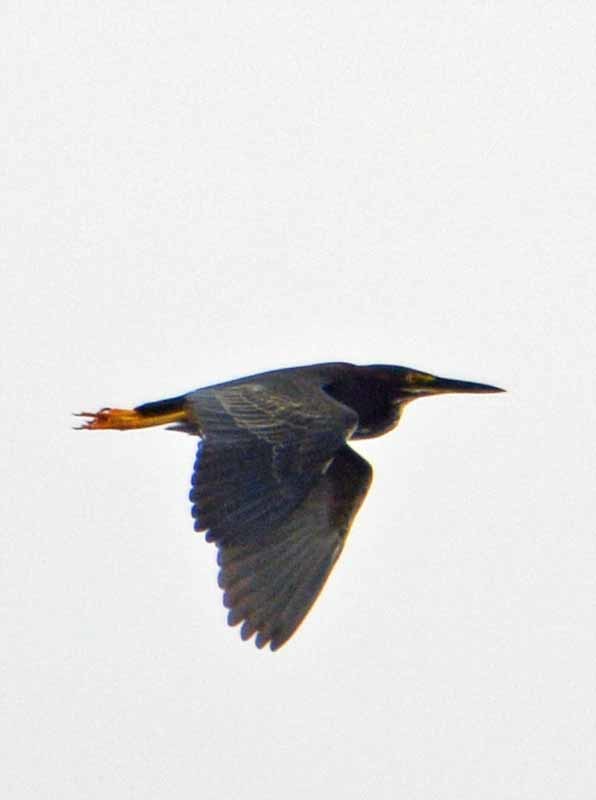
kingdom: Animalia
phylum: Chordata
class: Aves
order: Pelecaniformes
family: Ardeidae
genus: Butorides
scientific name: Butorides virescens
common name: Green heron
